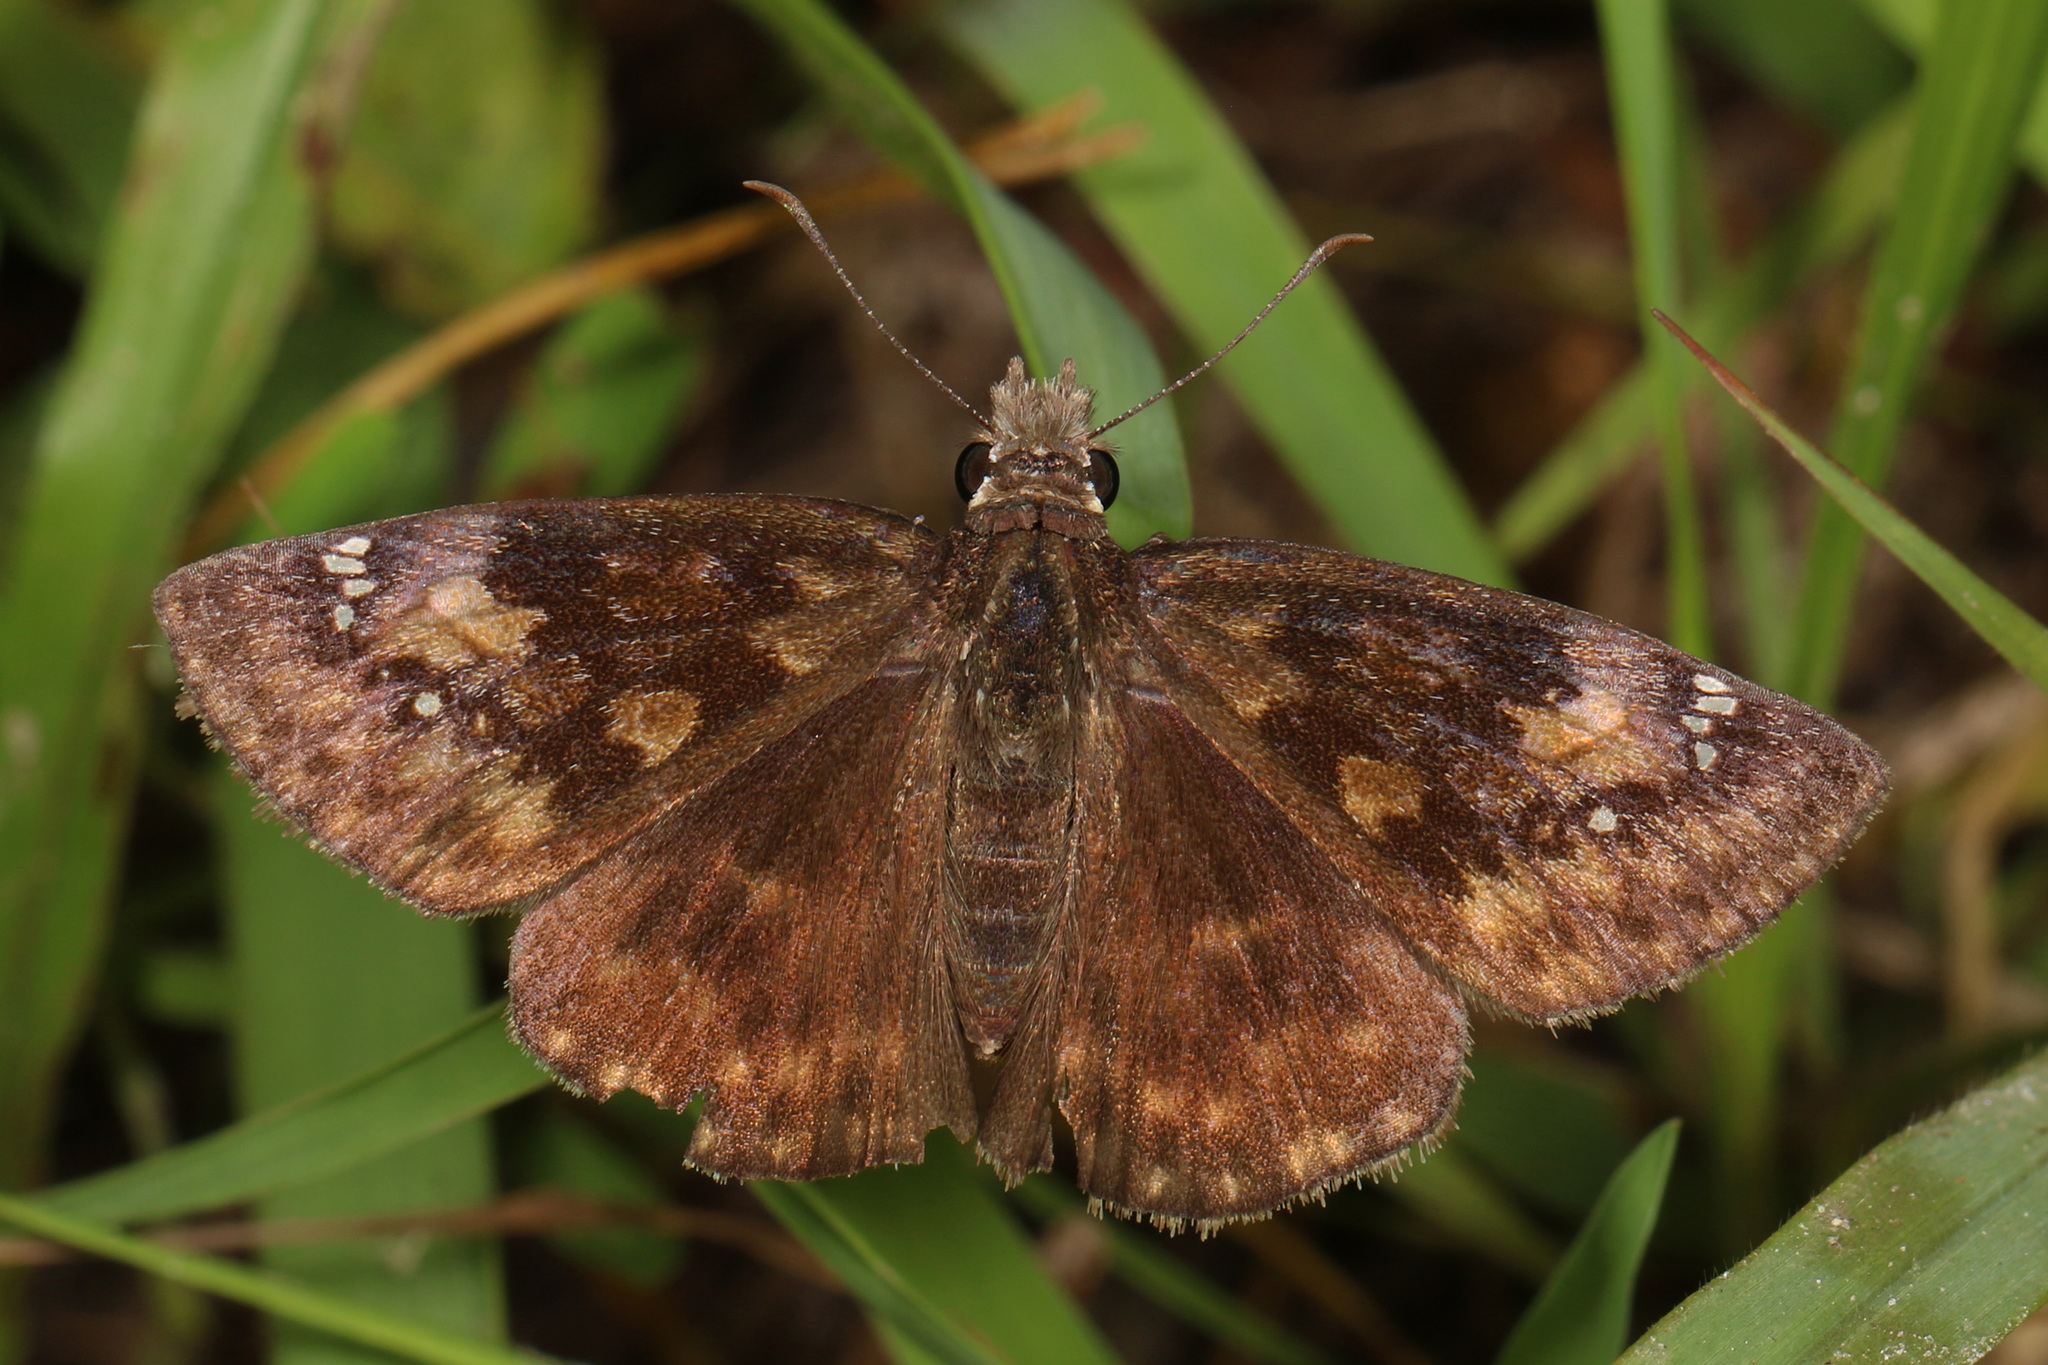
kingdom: Animalia
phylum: Arthropoda
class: Insecta
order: Lepidoptera
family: Hesperiidae
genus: Erynnis
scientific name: Erynnis baptisiae
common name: Wild indigo duskywing
